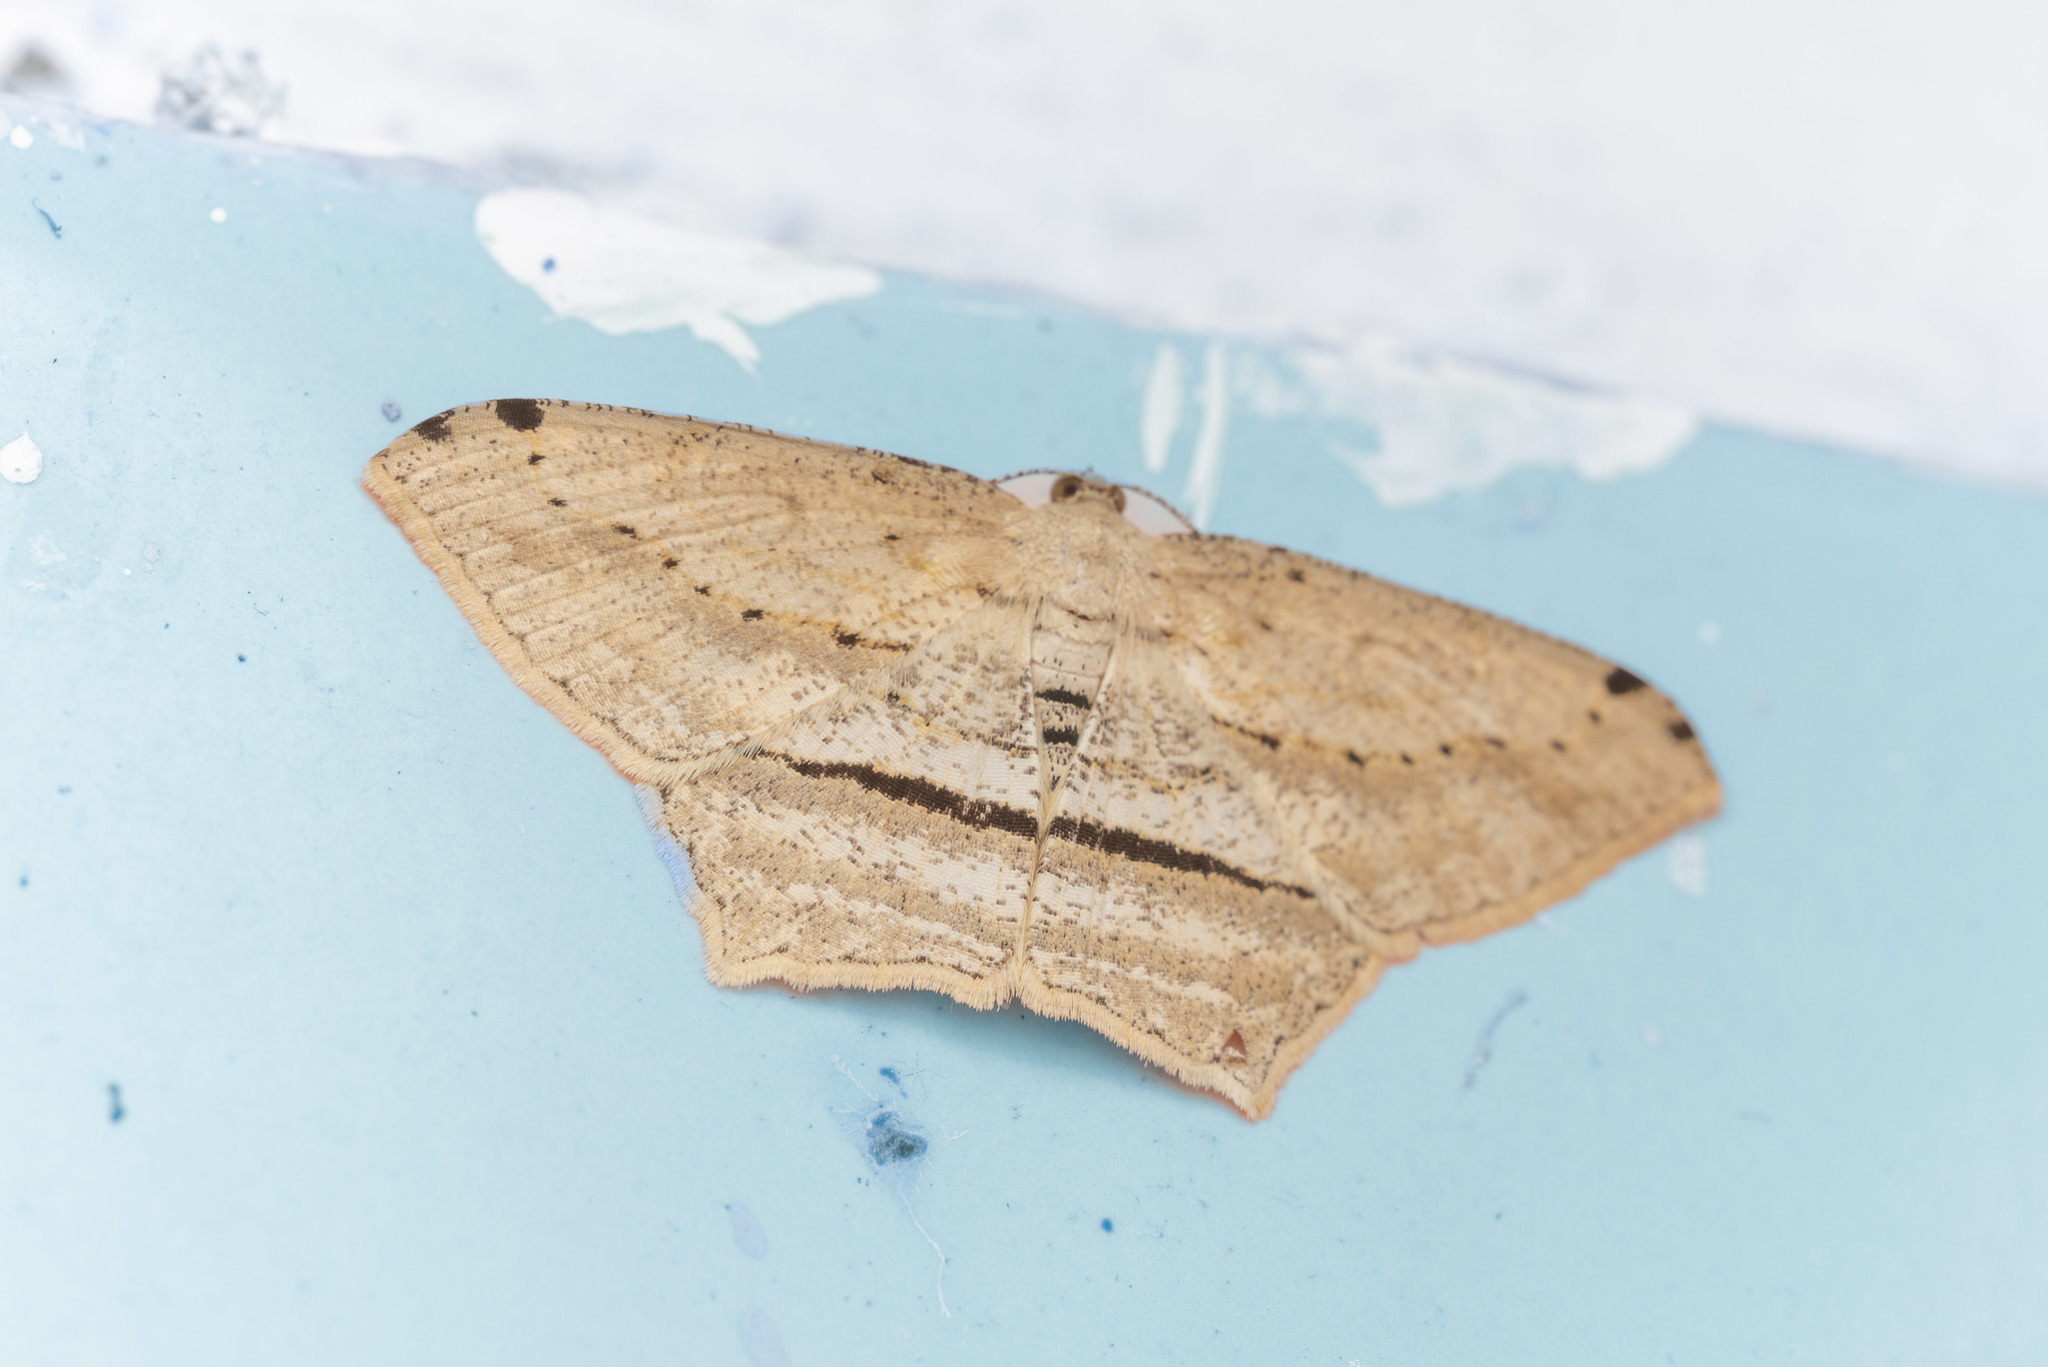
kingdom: Animalia
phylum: Arthropoda
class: Insecta
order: Lepidoptera
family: Geometridae
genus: Calletaera
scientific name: Calletaera dentata
